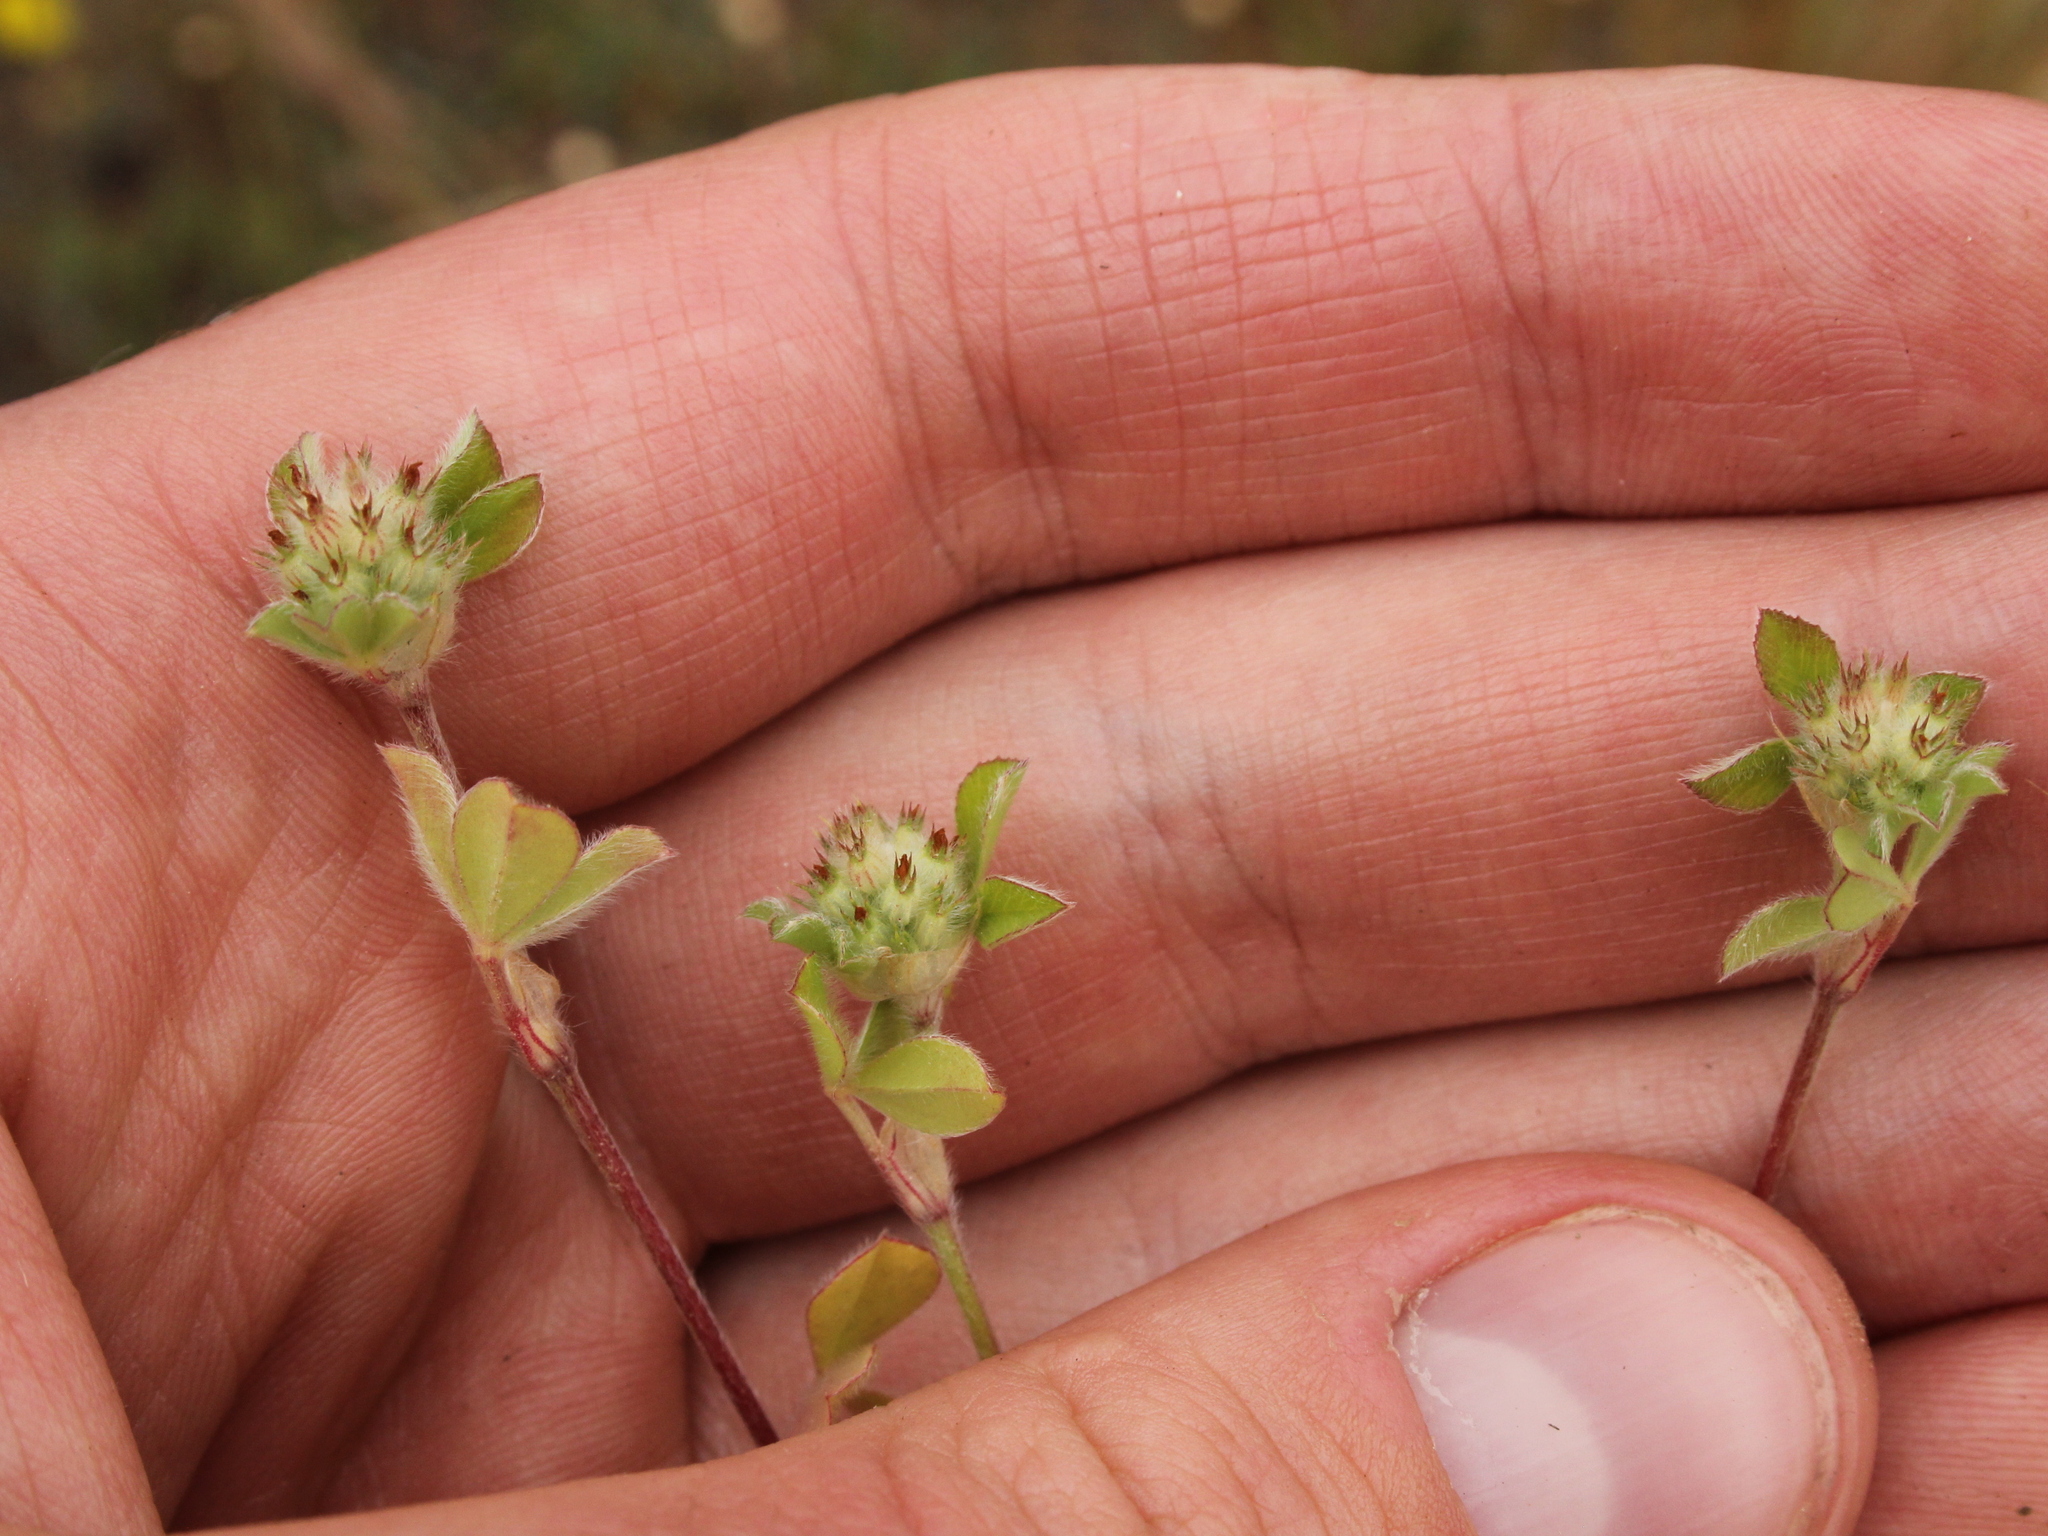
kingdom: Plantae
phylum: Tracheophyta
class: Magnoliopsida
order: Fabales
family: Fabaceae
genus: Trifolium
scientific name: Trifolium striatum
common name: Knotted clover
